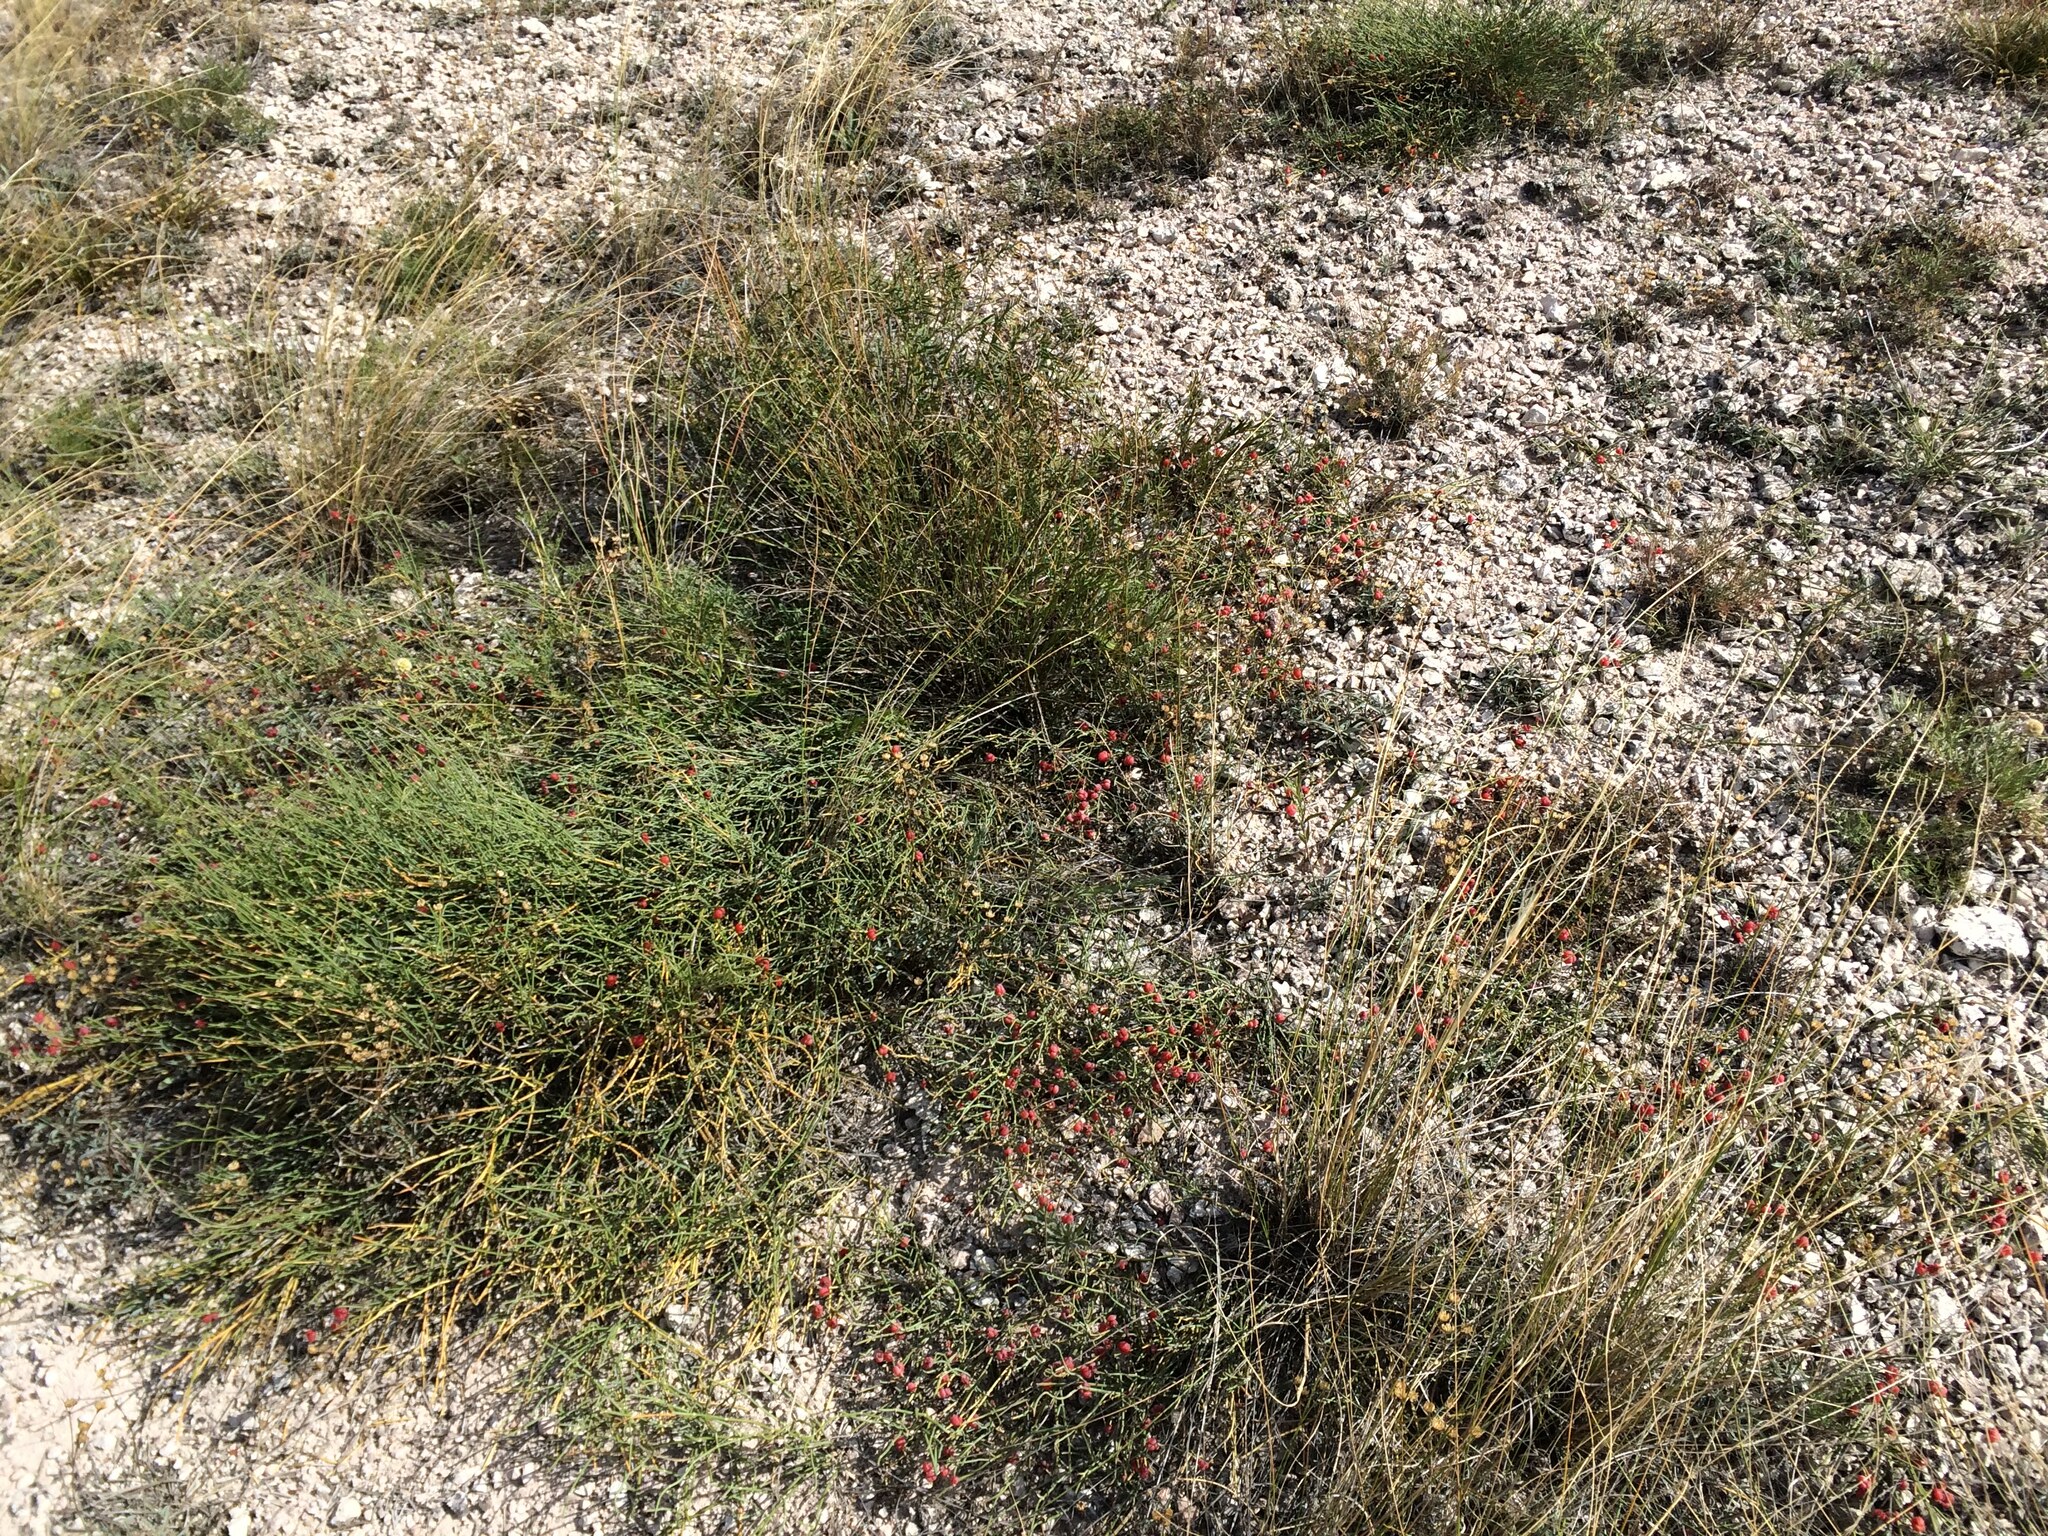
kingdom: Plantae
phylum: Tracheophyta
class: Gnetopsida
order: Ephedrales
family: Ephedraceae
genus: Ephedra
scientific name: Ephedra distachya
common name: Sea grape
